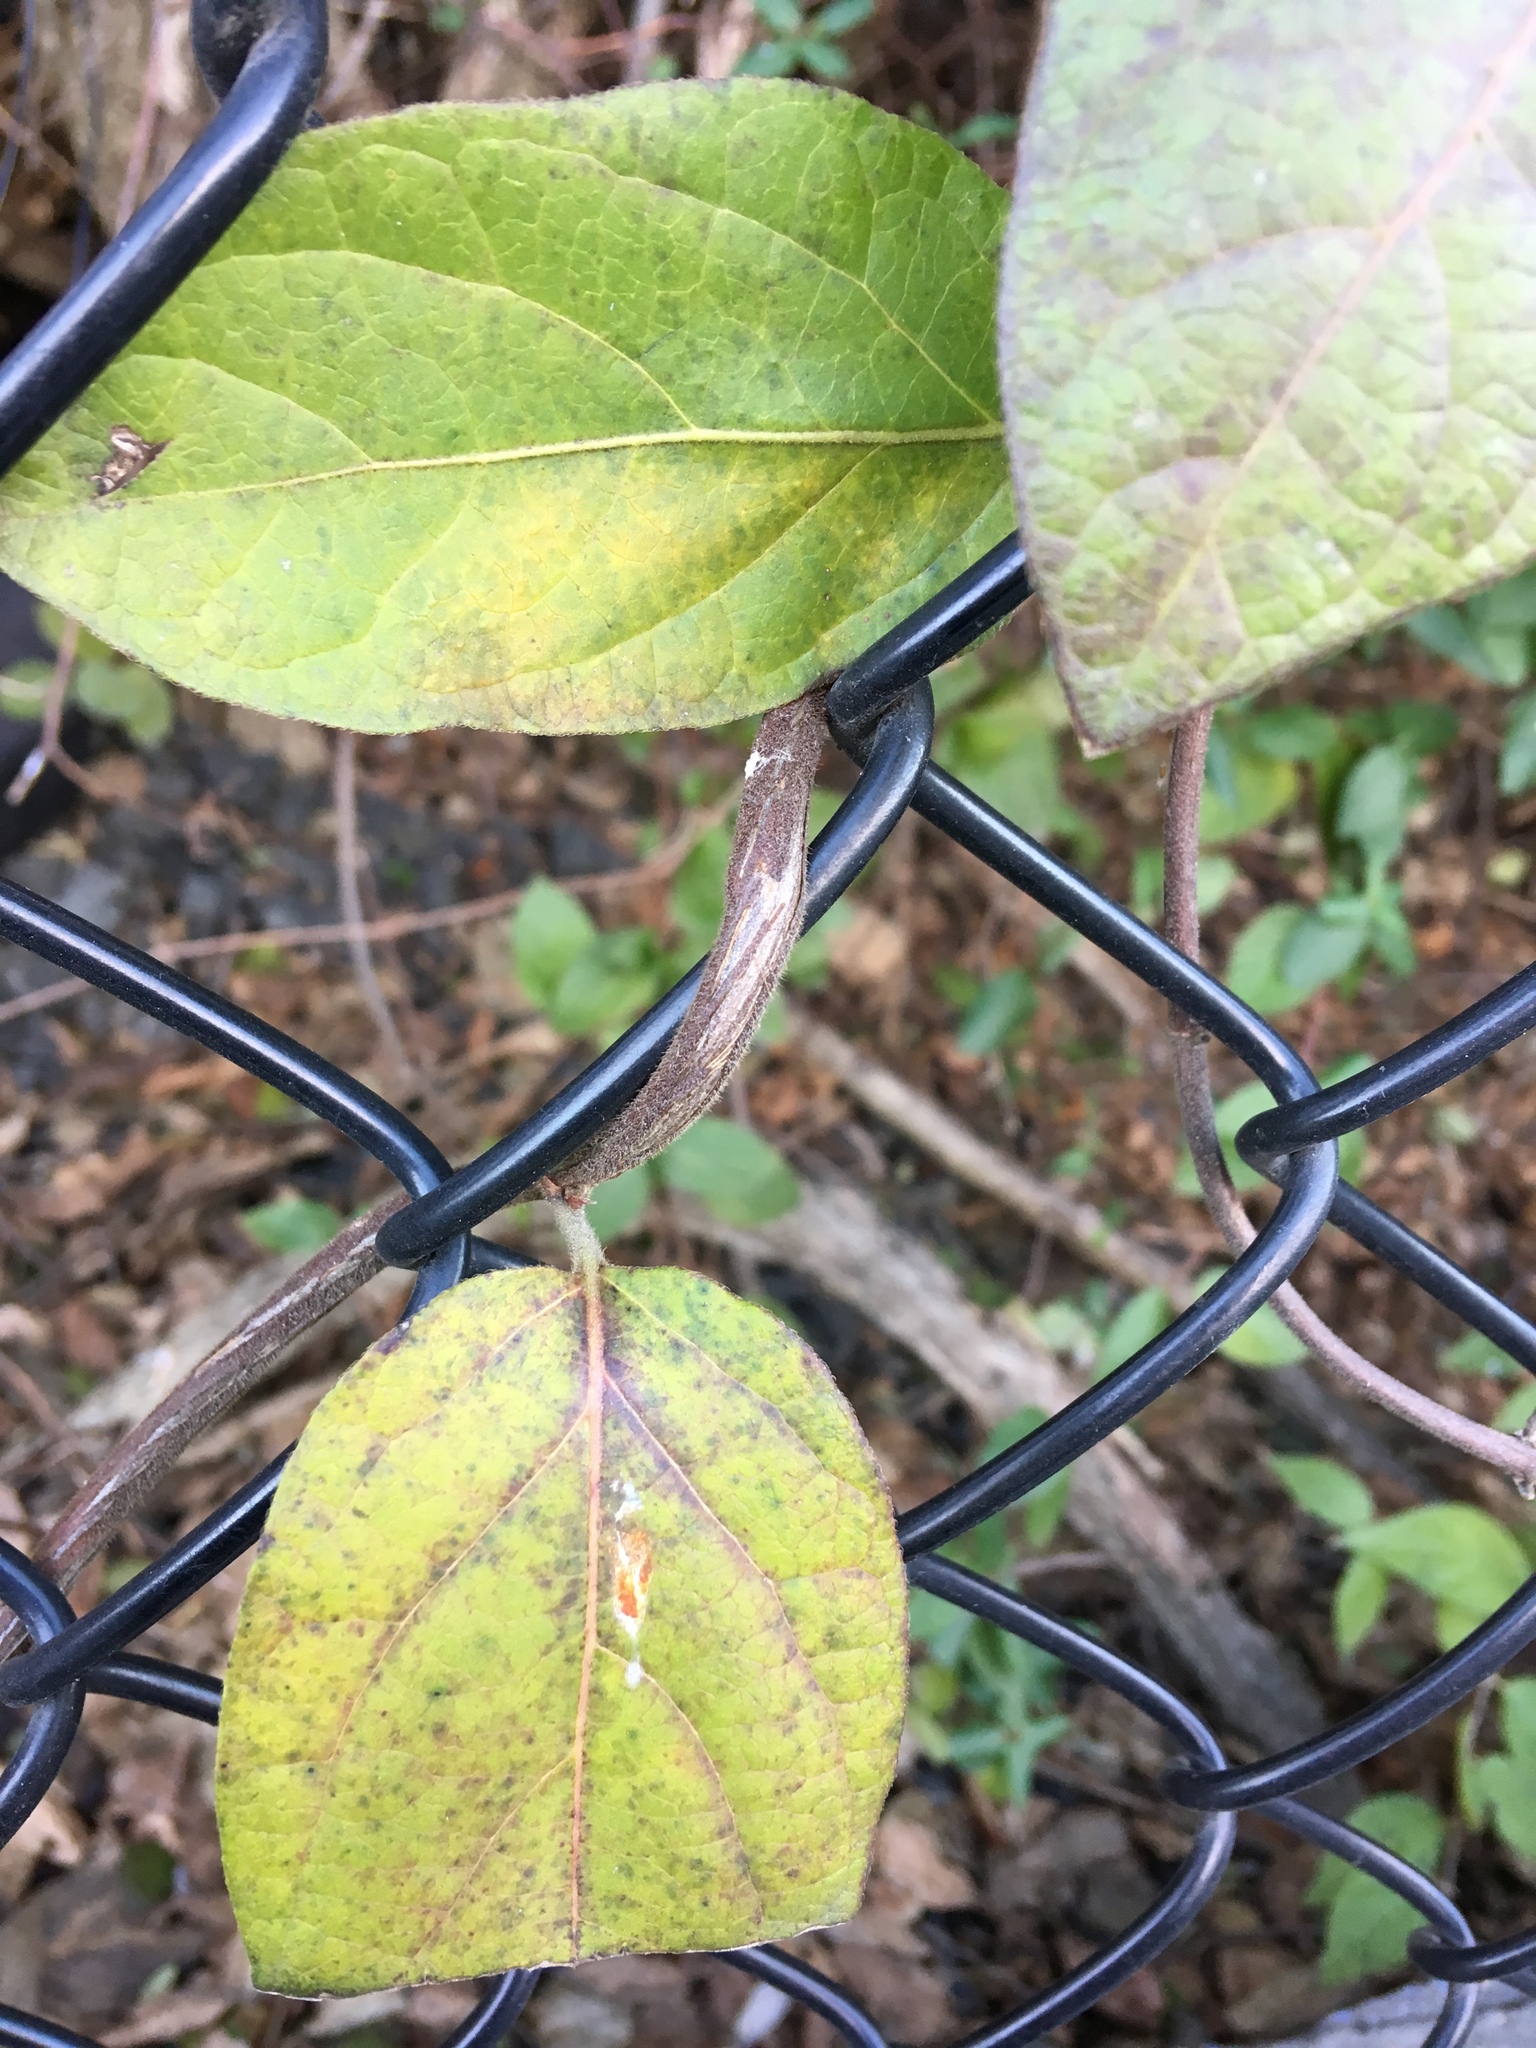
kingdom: Plantae
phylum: Tracheophyta
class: Magnoliopsida
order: Dipsacales
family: Caprifoliaceae
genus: Lonicera
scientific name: Lonicera japonica
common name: Japanese honeysuckle
